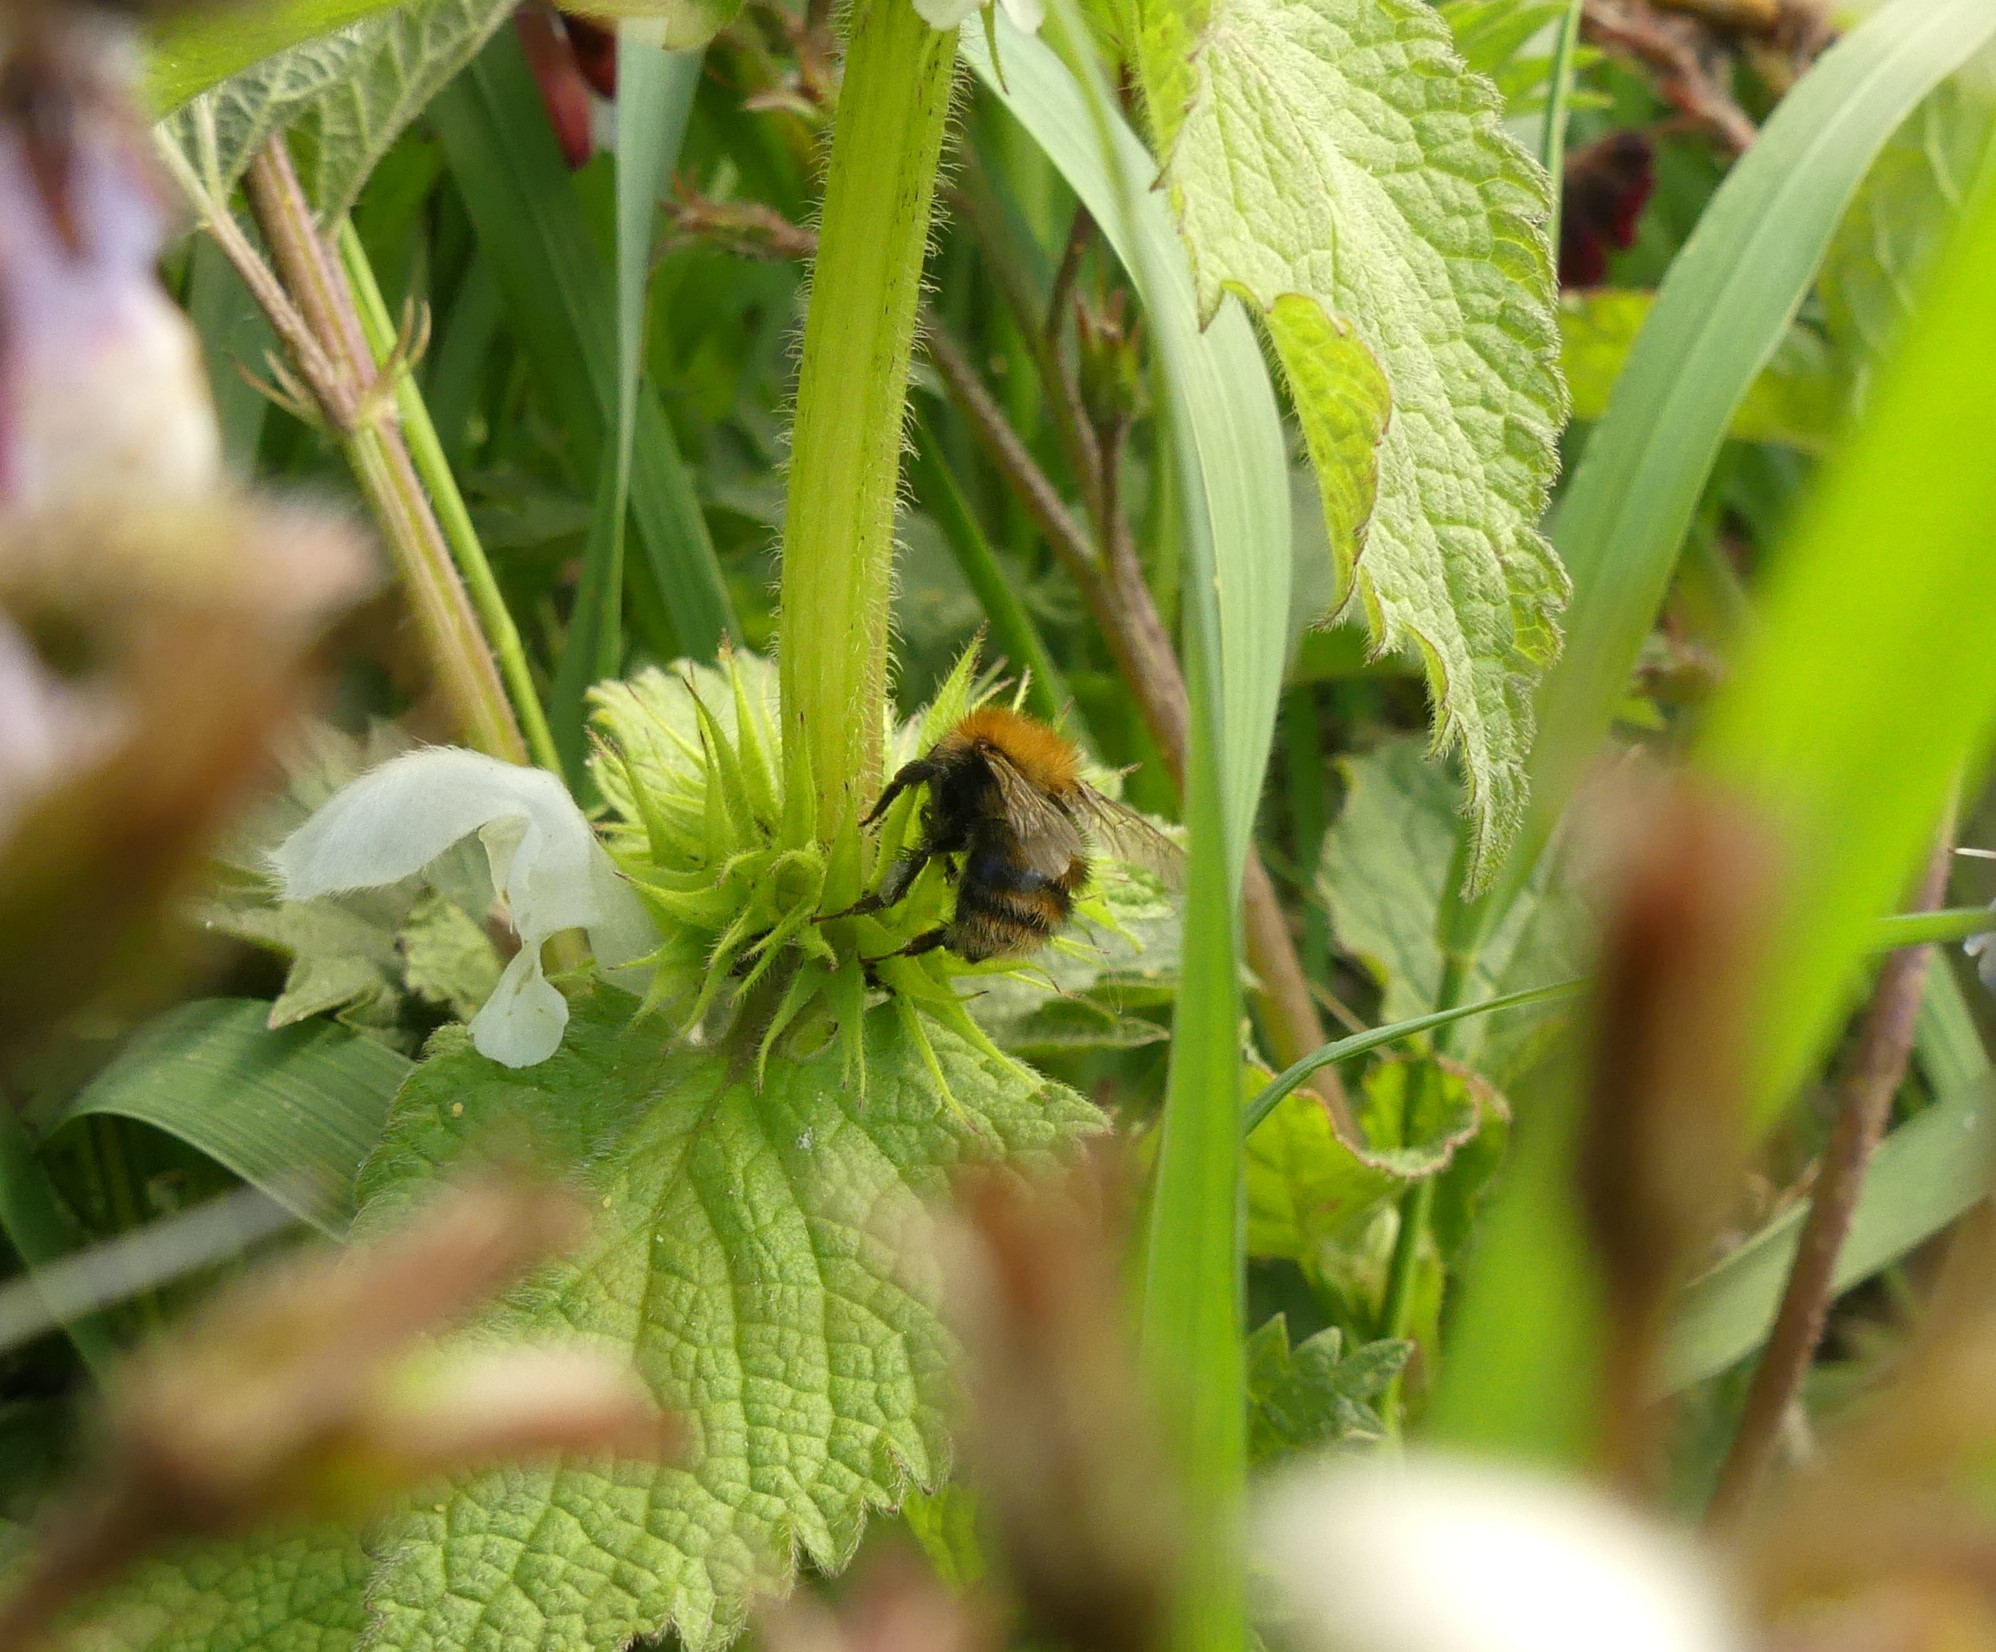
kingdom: Animalia
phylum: Arthropoda
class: Insecta
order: Hymenoptera
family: Apidae
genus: Bombus
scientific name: Bombus pascuorum
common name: Common carder bee
